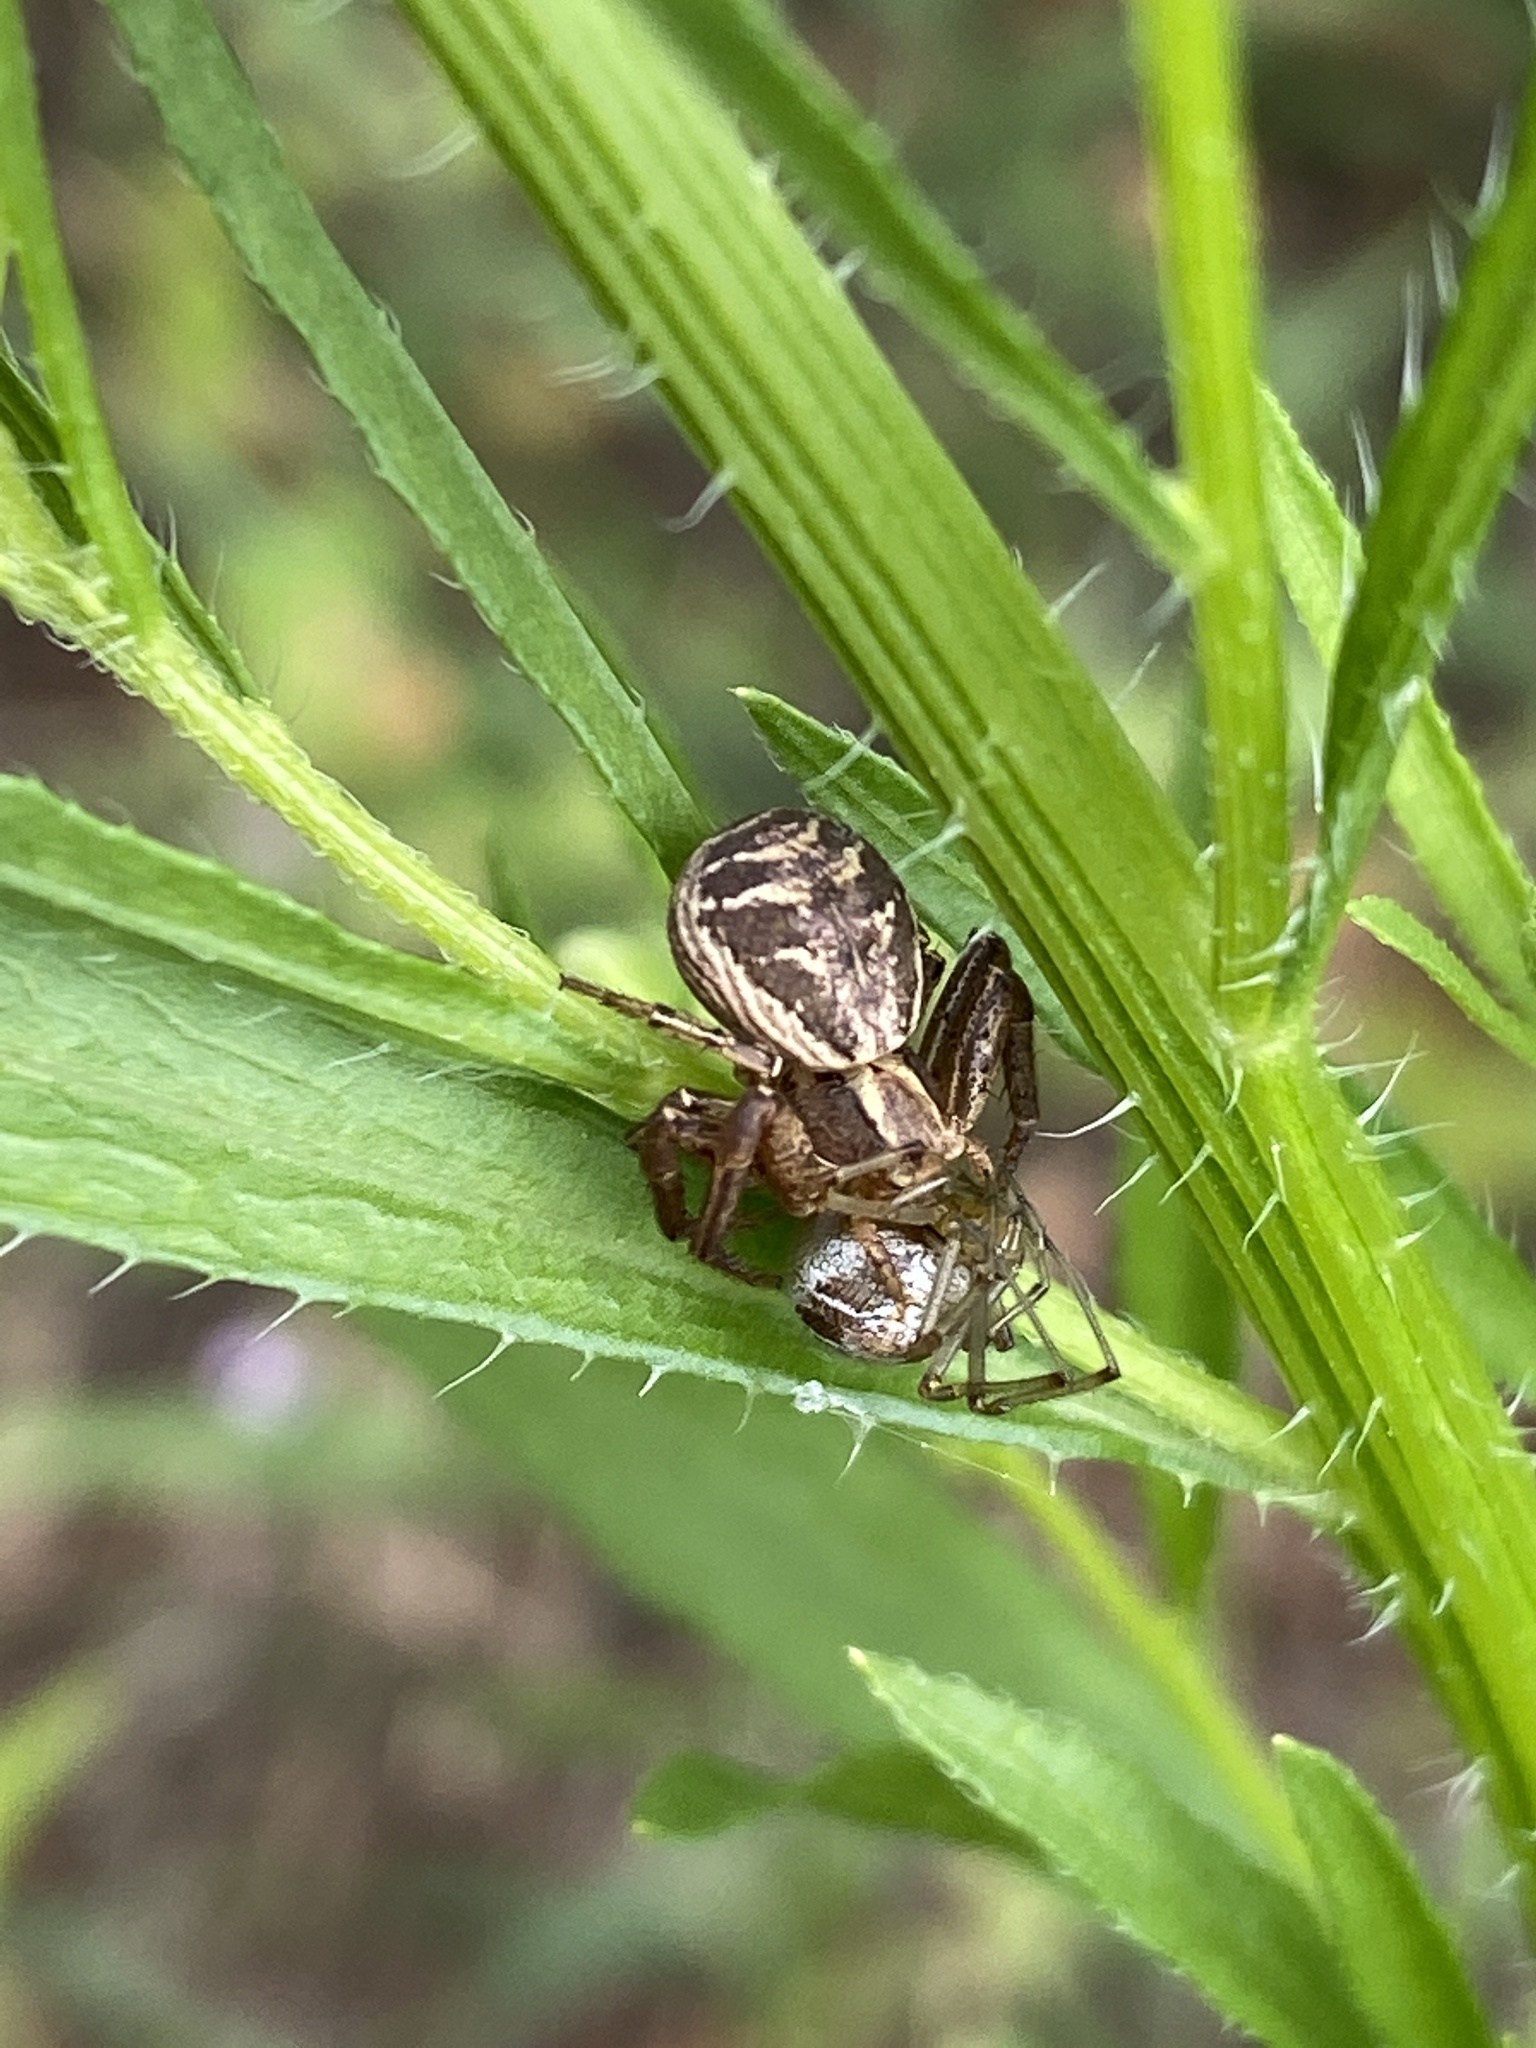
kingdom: Animalia
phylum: Arthropoda
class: Arachnida
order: Araneae
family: Thomisidae
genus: Xysticus
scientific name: Xysticus
